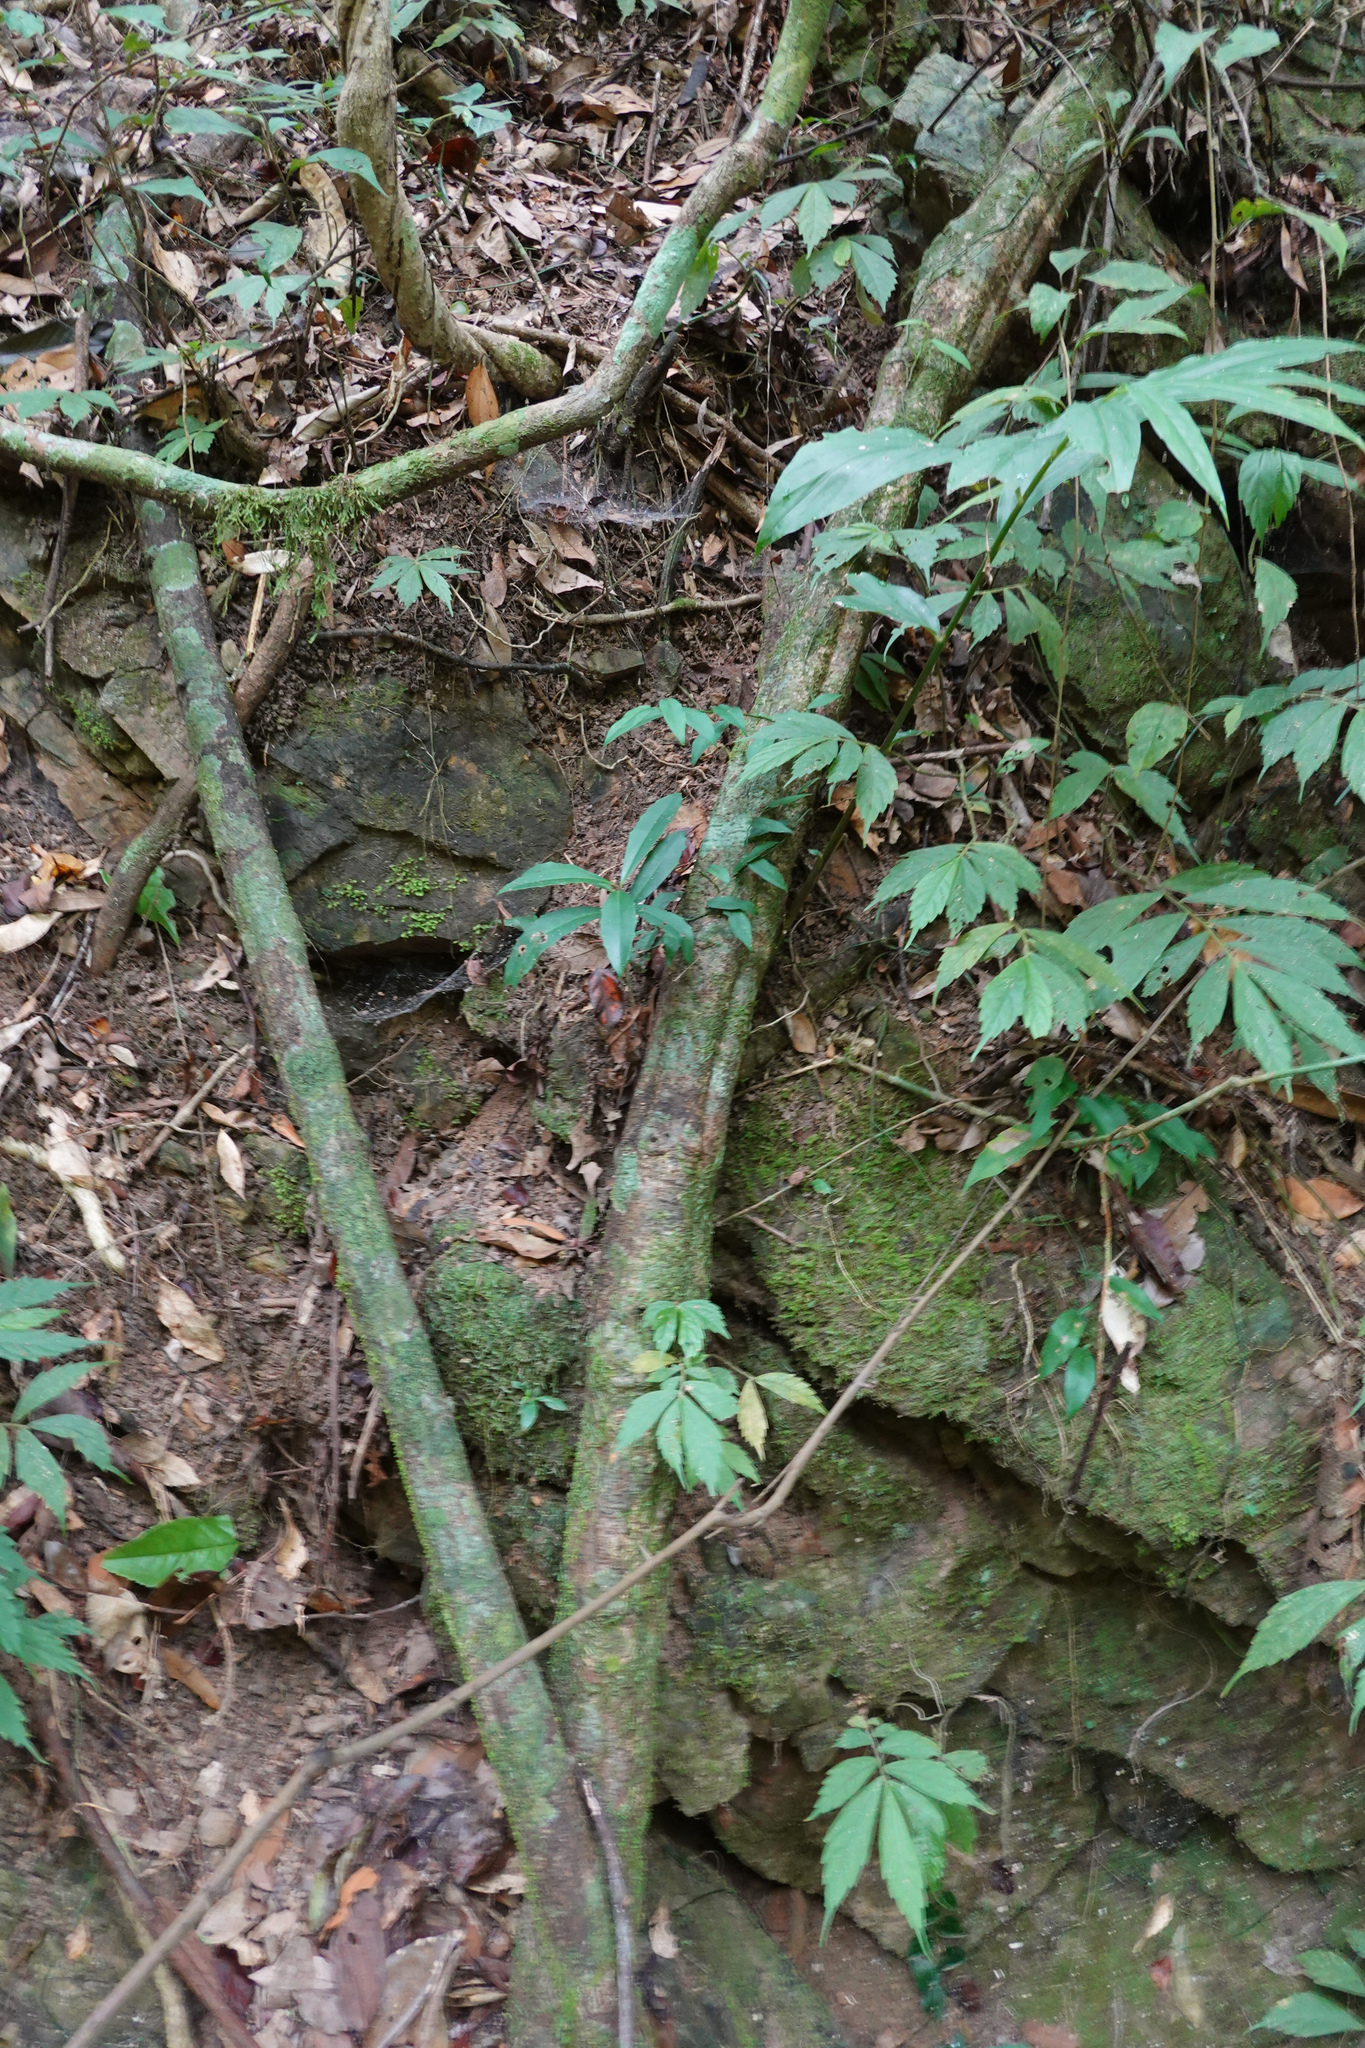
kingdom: Plantae
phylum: Tracheophyta
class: Magnoliopsida
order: Fabales
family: Fabaceae
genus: Phanera
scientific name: Phanera championii
